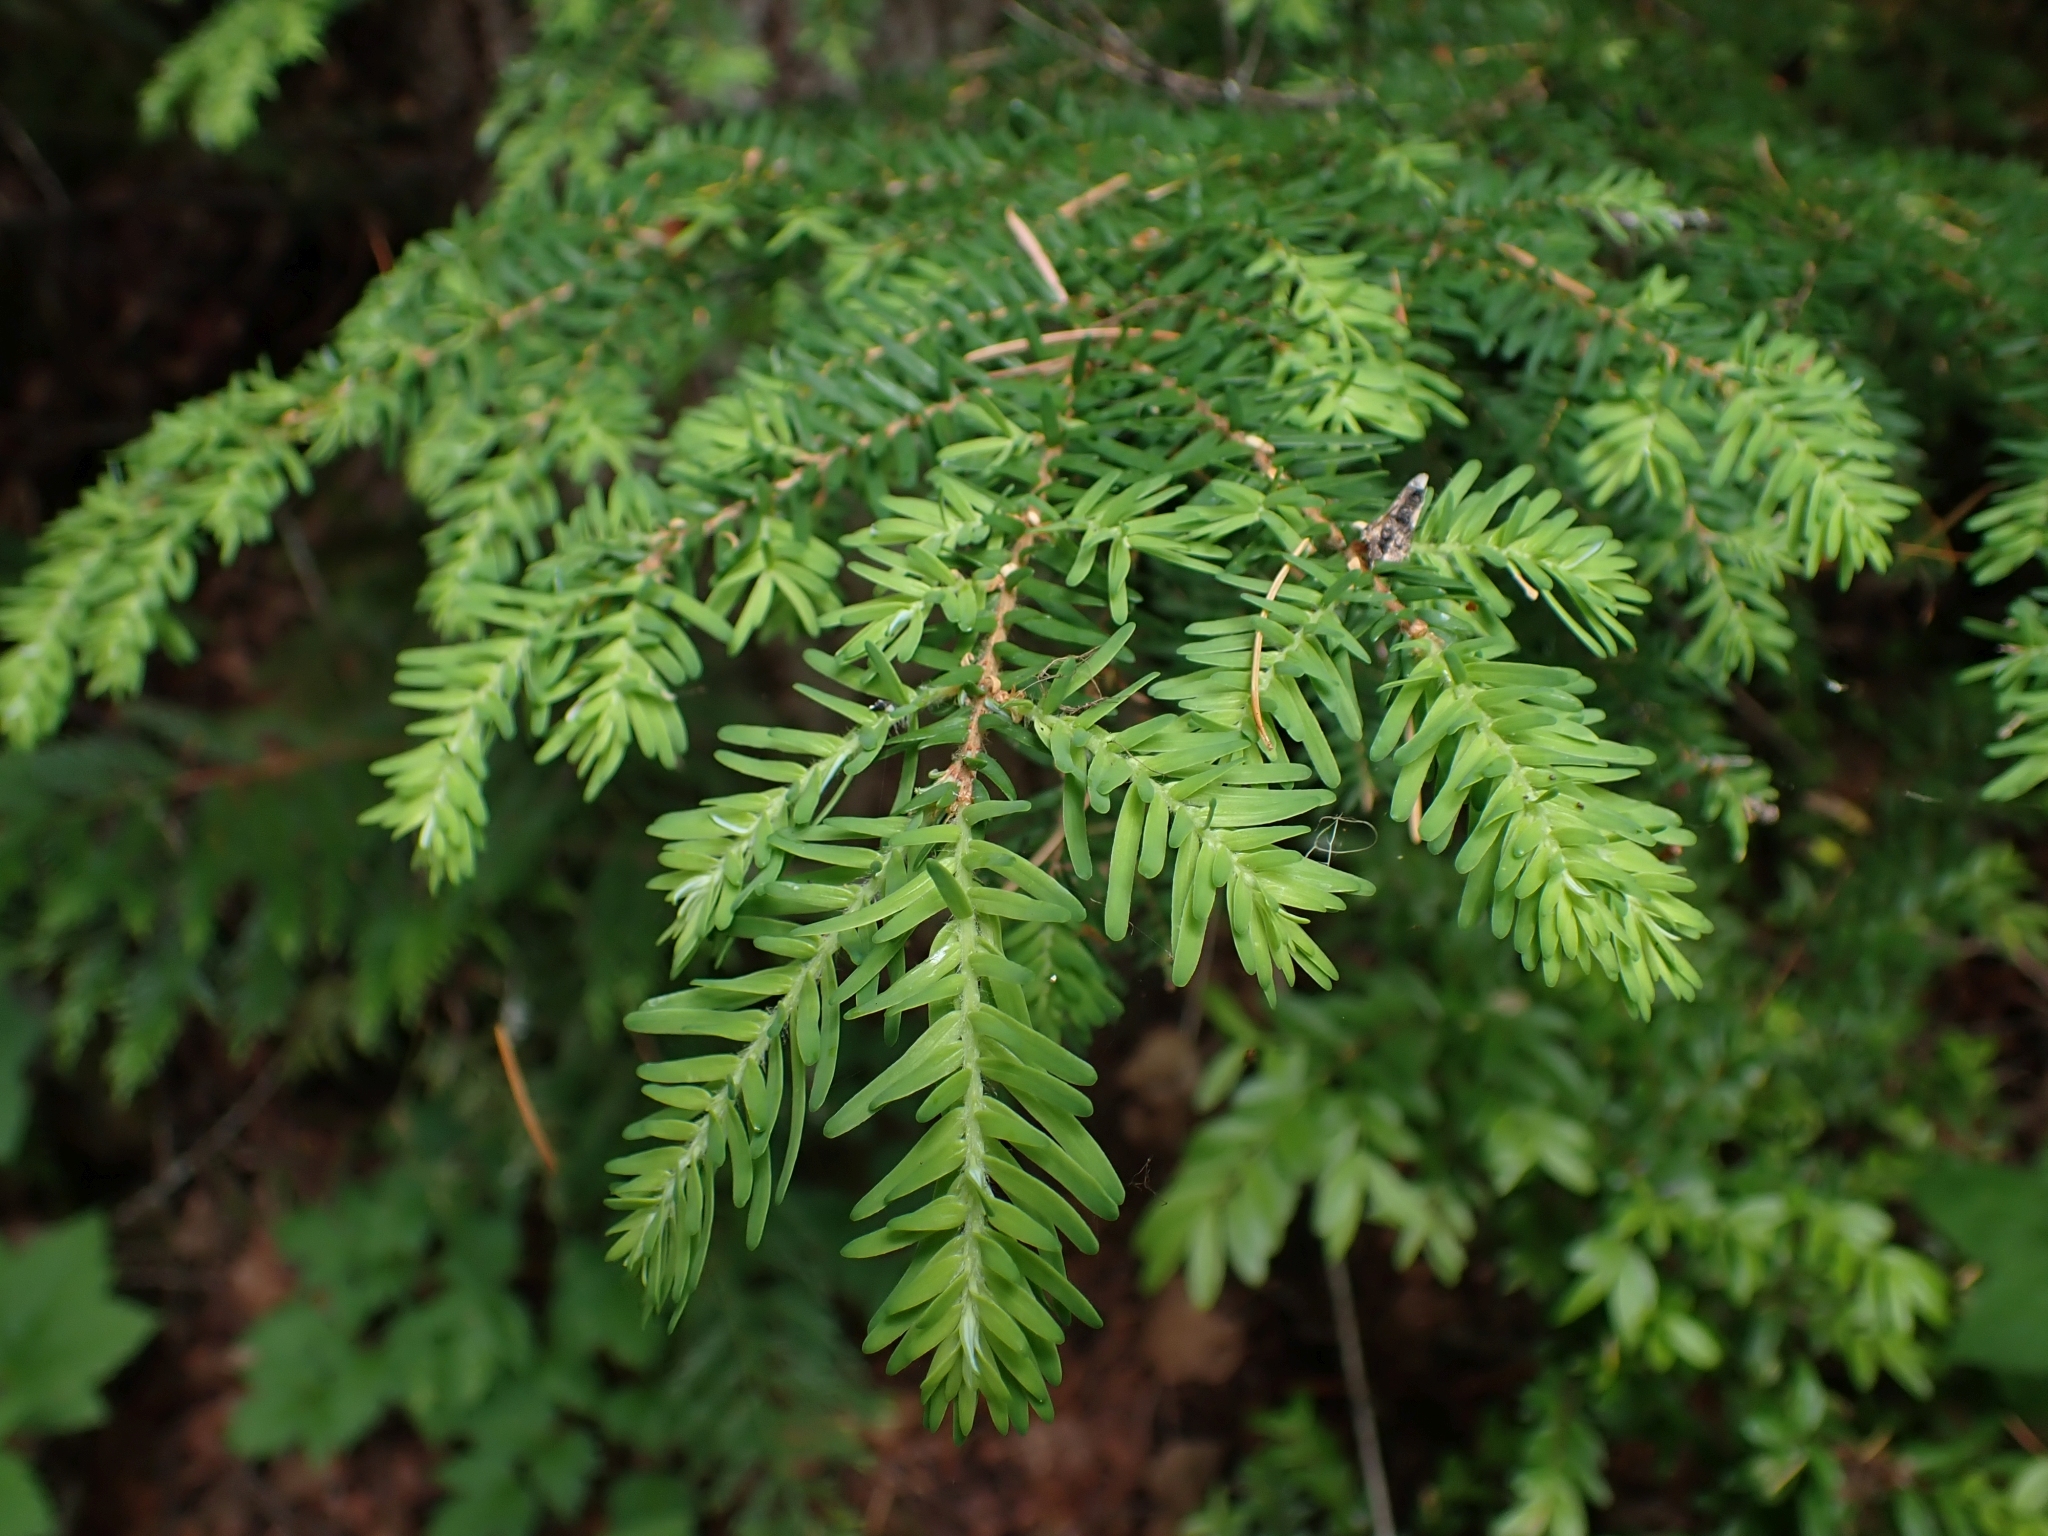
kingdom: Plantae
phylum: Tracheophyta
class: Pinopsida
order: Pinales
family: Pinaceae
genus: Tsuga
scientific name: Tsuga heterophylla
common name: Western hemlock
